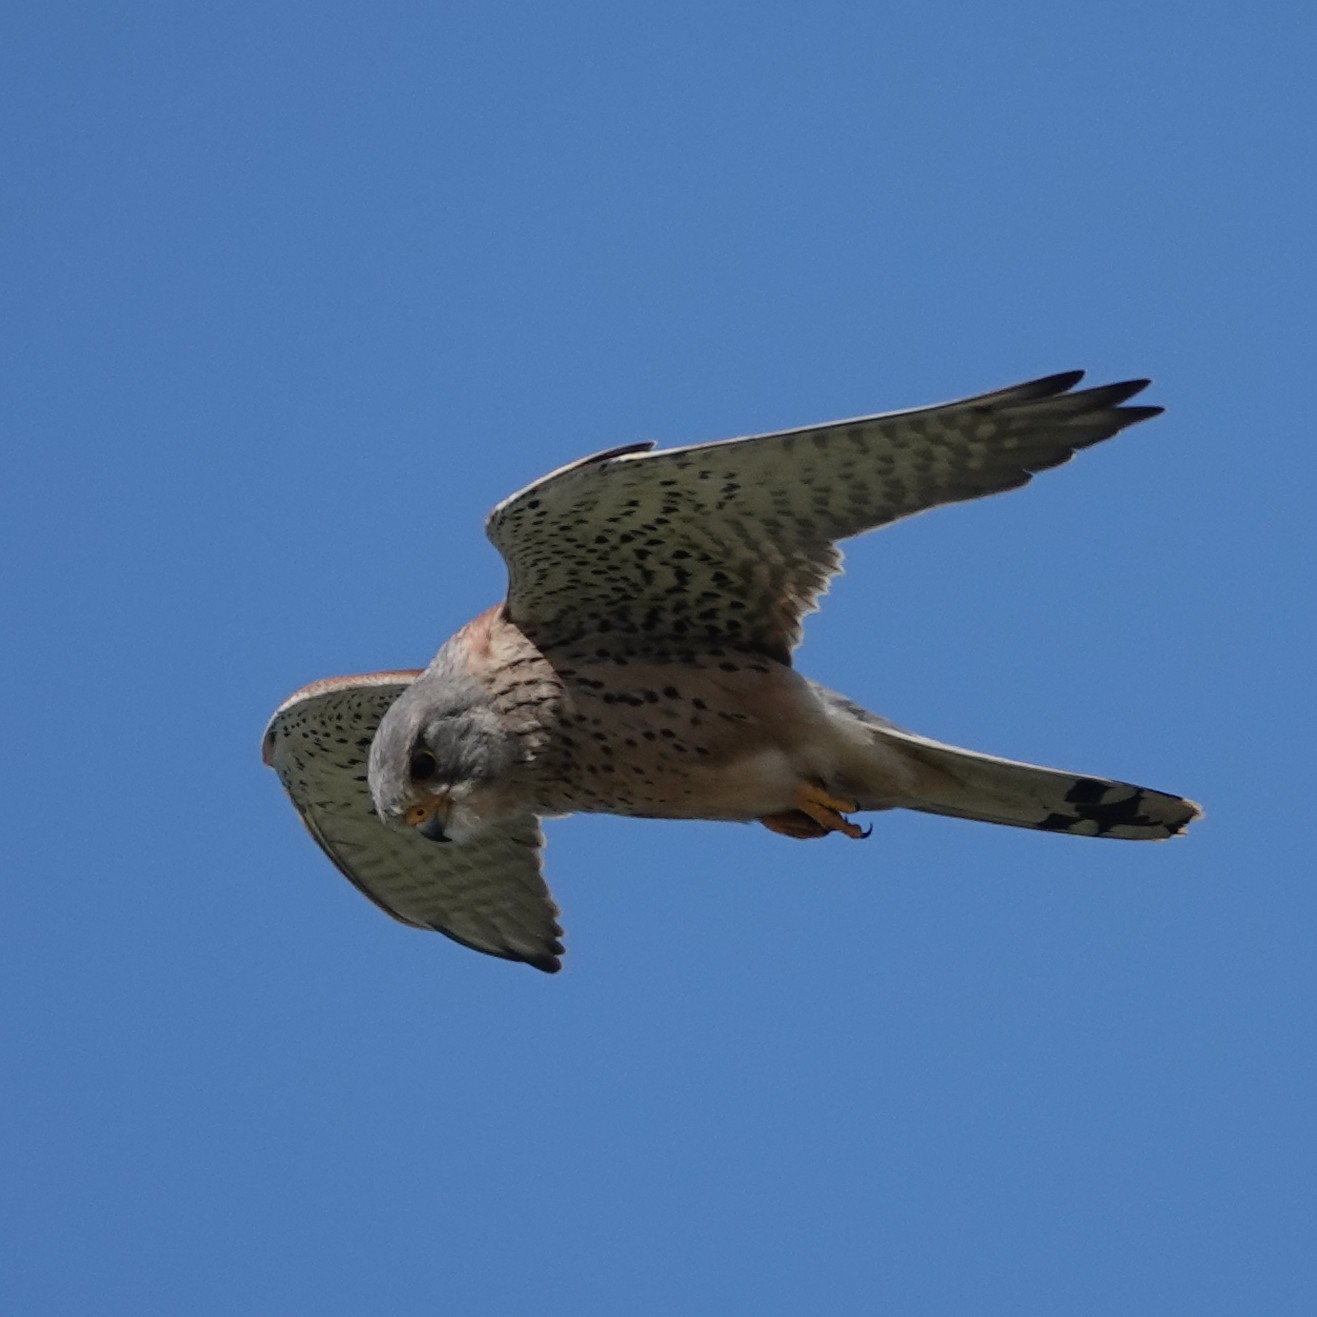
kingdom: Animalia
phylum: Chordata
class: Aves
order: Falconiformes
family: Falconidae
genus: Falco
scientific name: Falco tinnunculus
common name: Common kestrel
